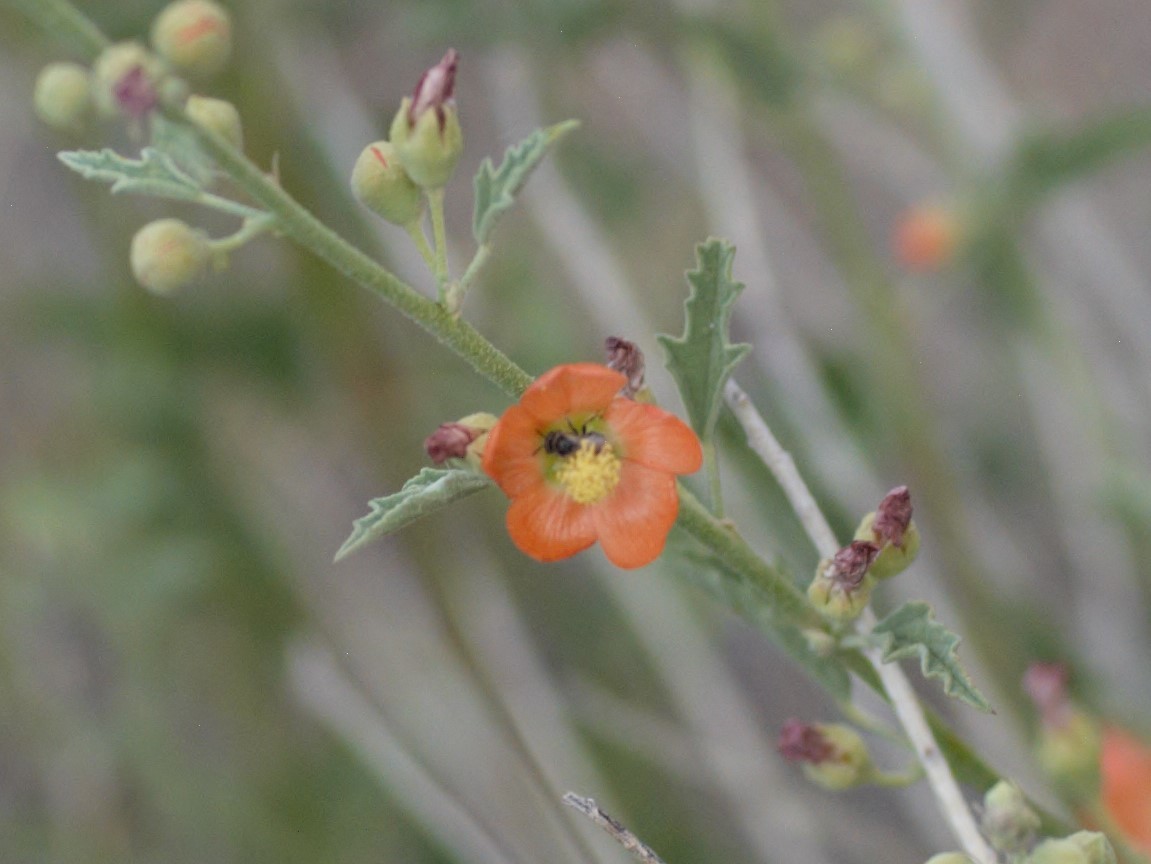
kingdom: Animalia
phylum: Arthropoda
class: Insecta
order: Hymenoptera
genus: Macroteropsis
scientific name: Macroteropsis
